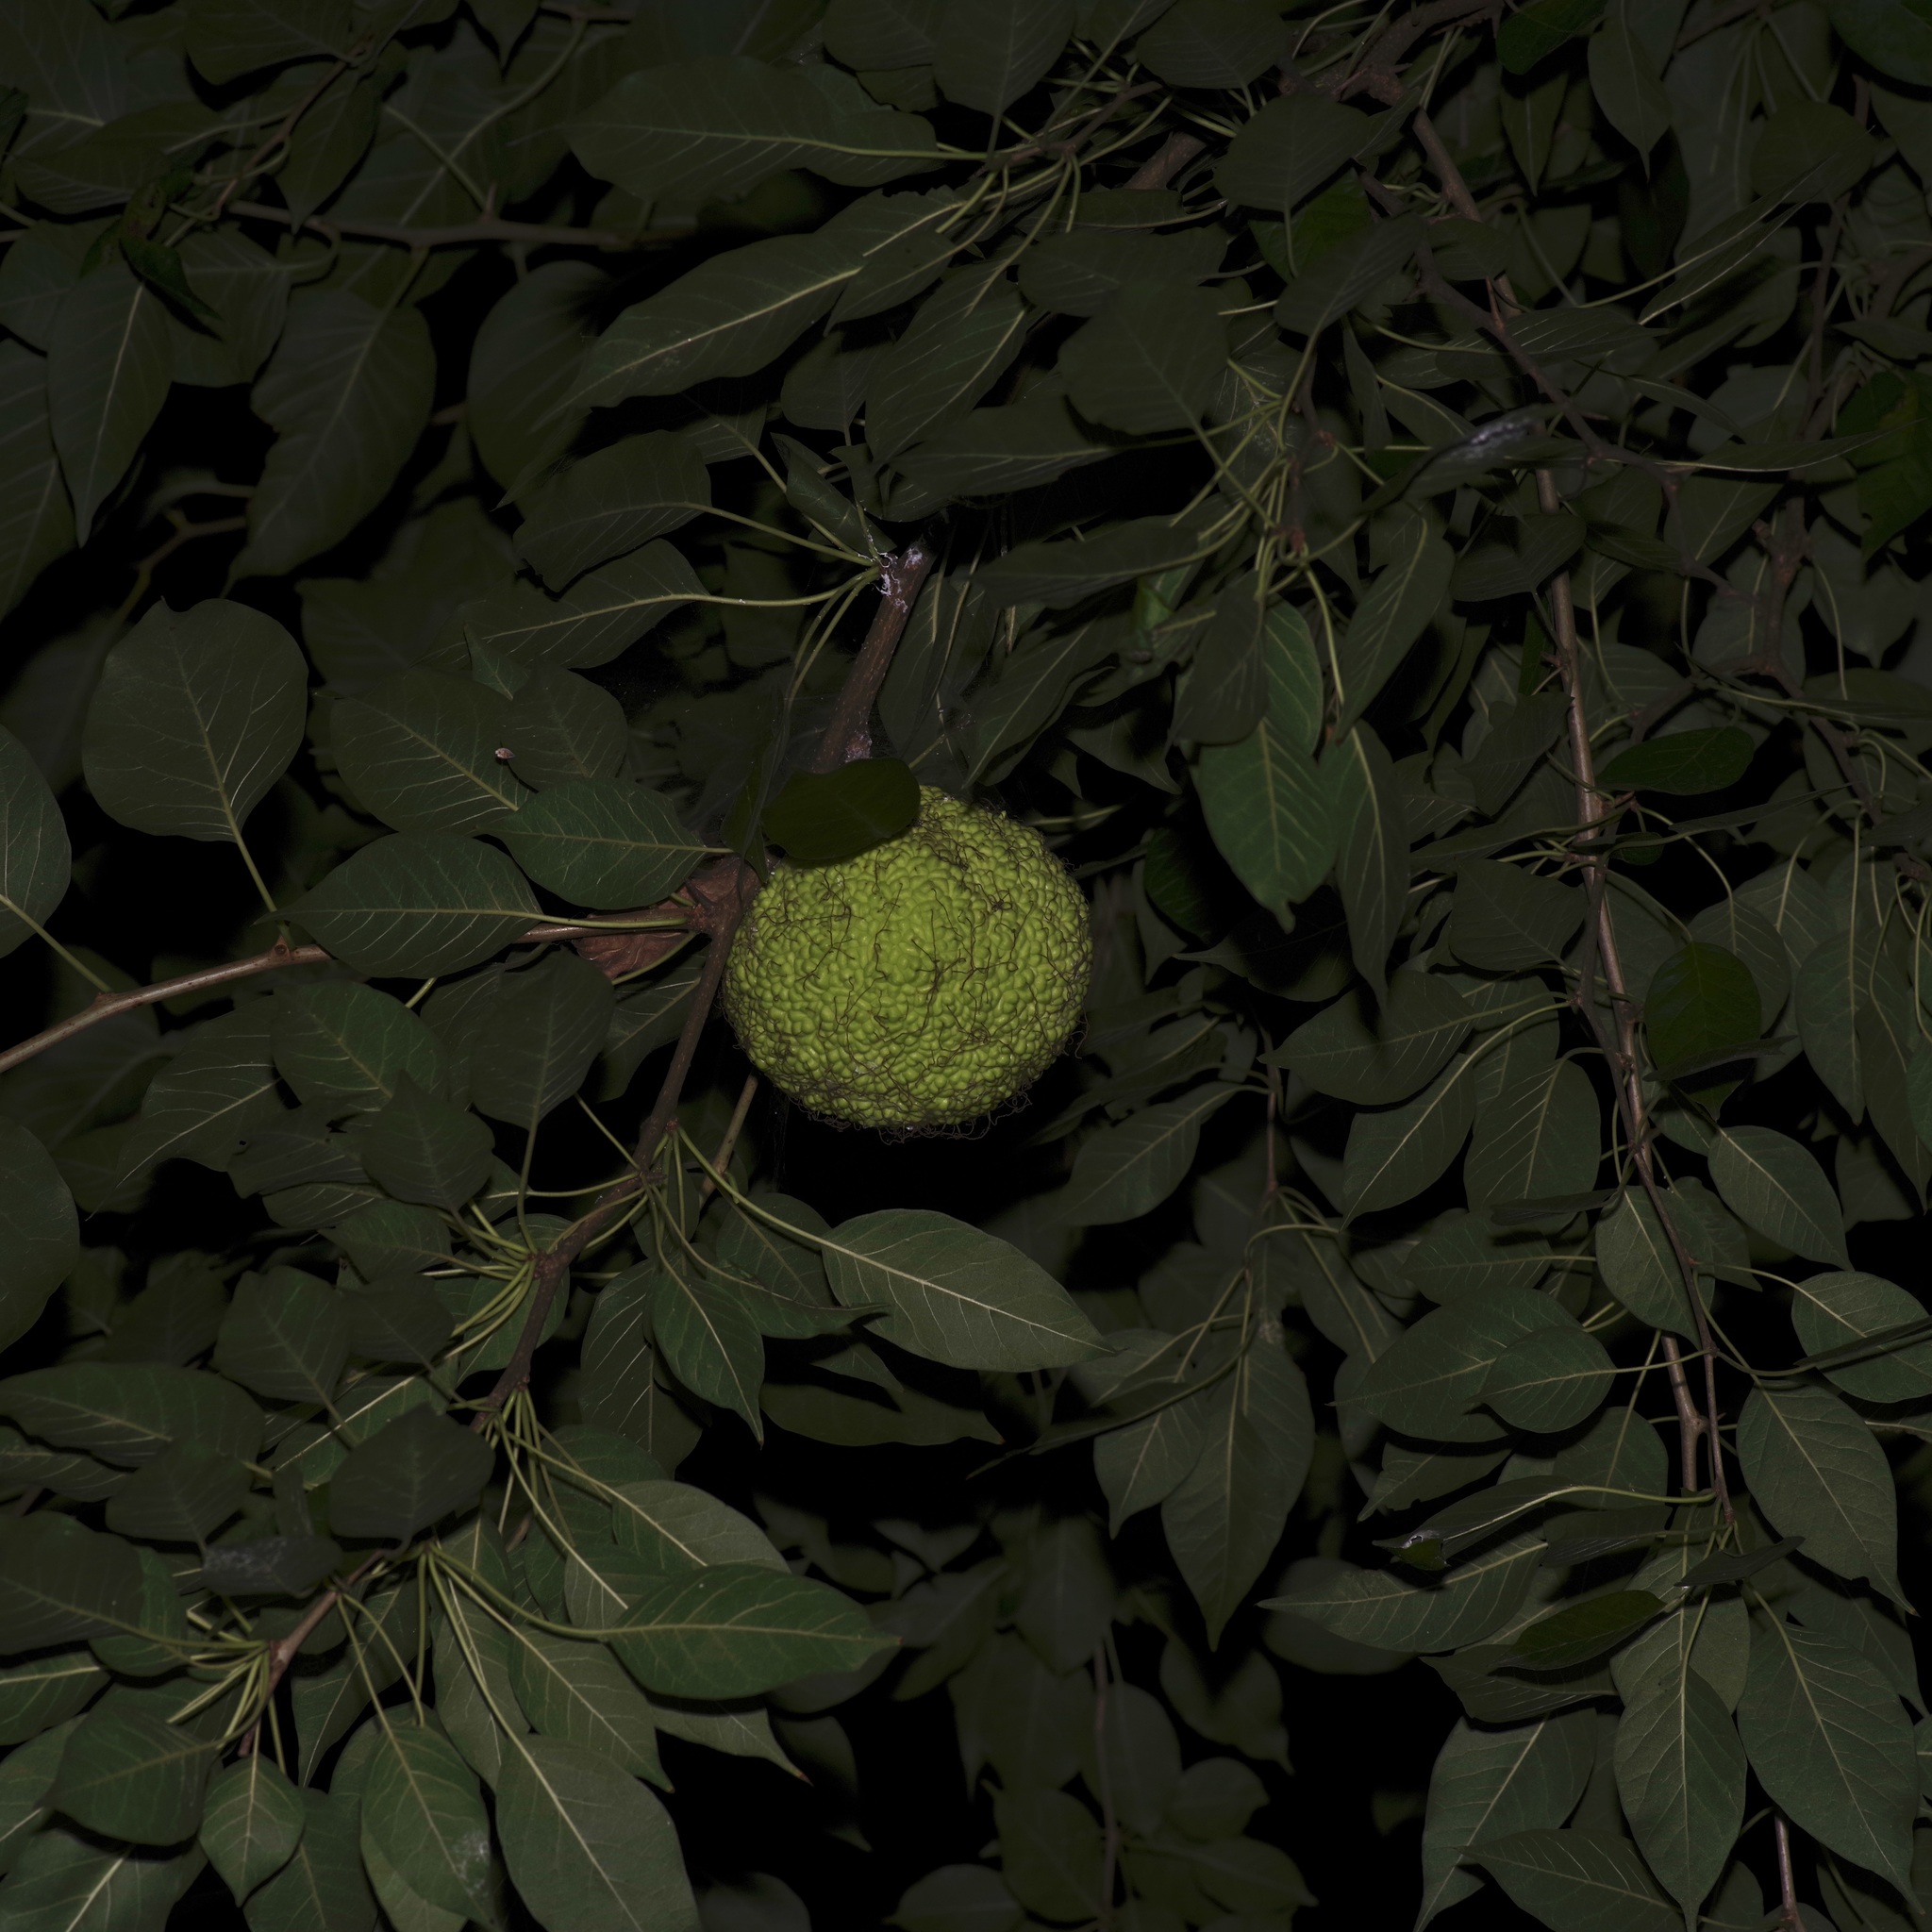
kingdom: Plantae
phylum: Tracheophyta
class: Magnoliopsida
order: Rosales
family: Moraceae
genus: Maclura
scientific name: Maclura pomifera
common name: Osage-orange
